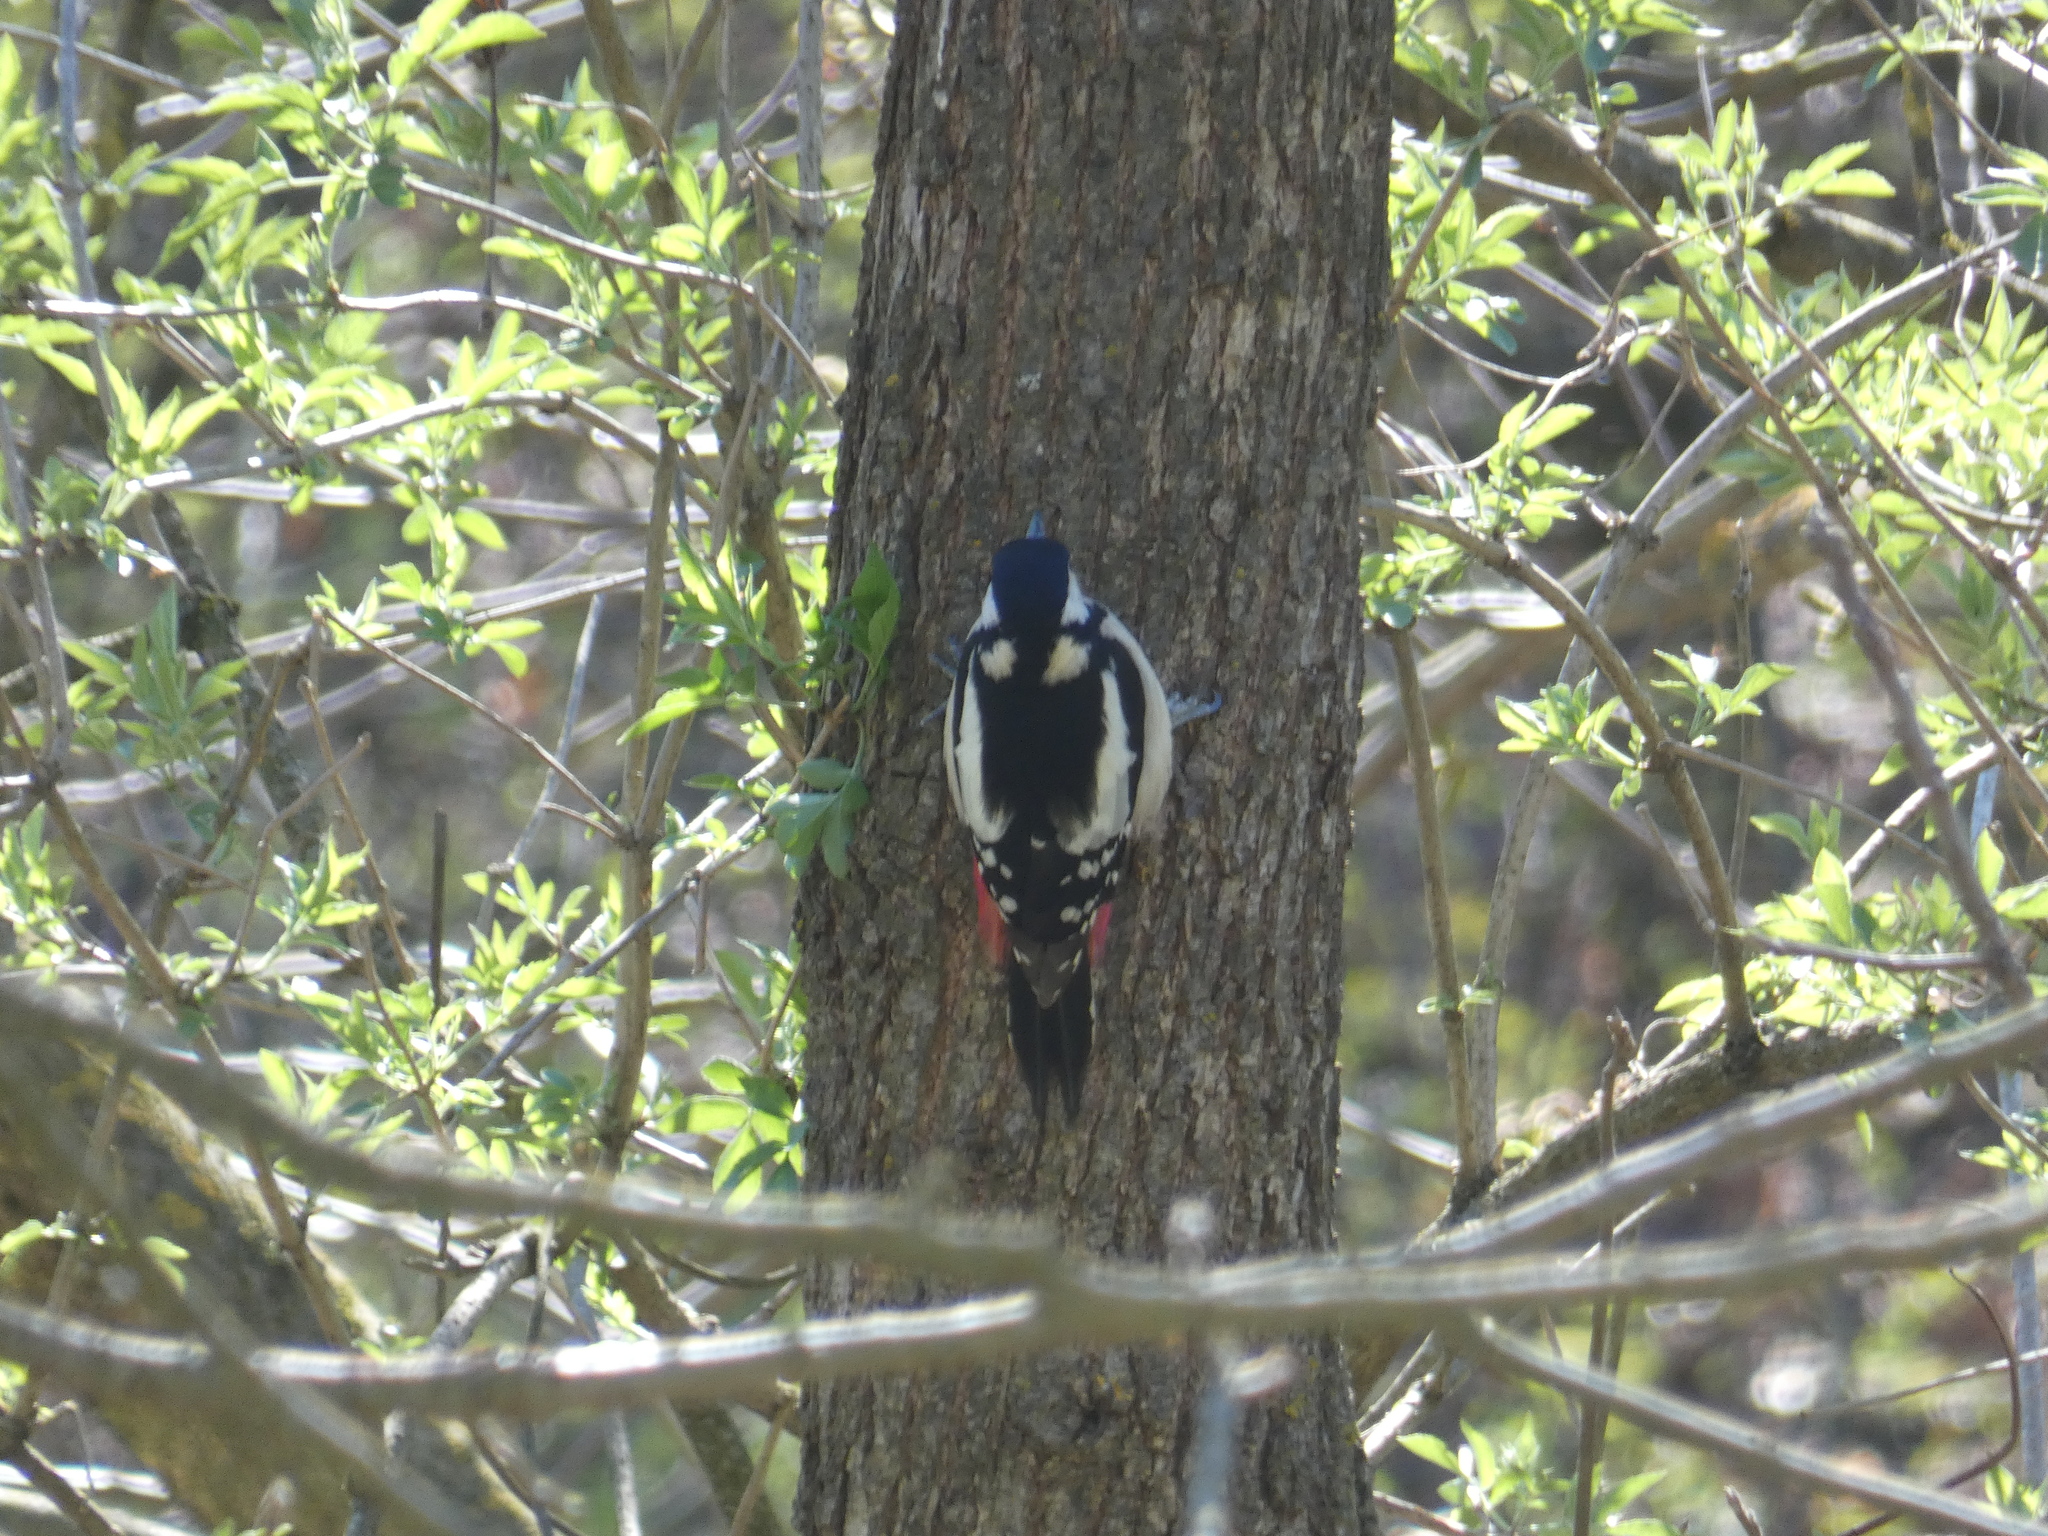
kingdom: Animalia
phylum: Chordata
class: Aves
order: Piciformes
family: Picidae
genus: Dendrocopos
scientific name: Dendrocopos major
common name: Great spotted woodpecker
